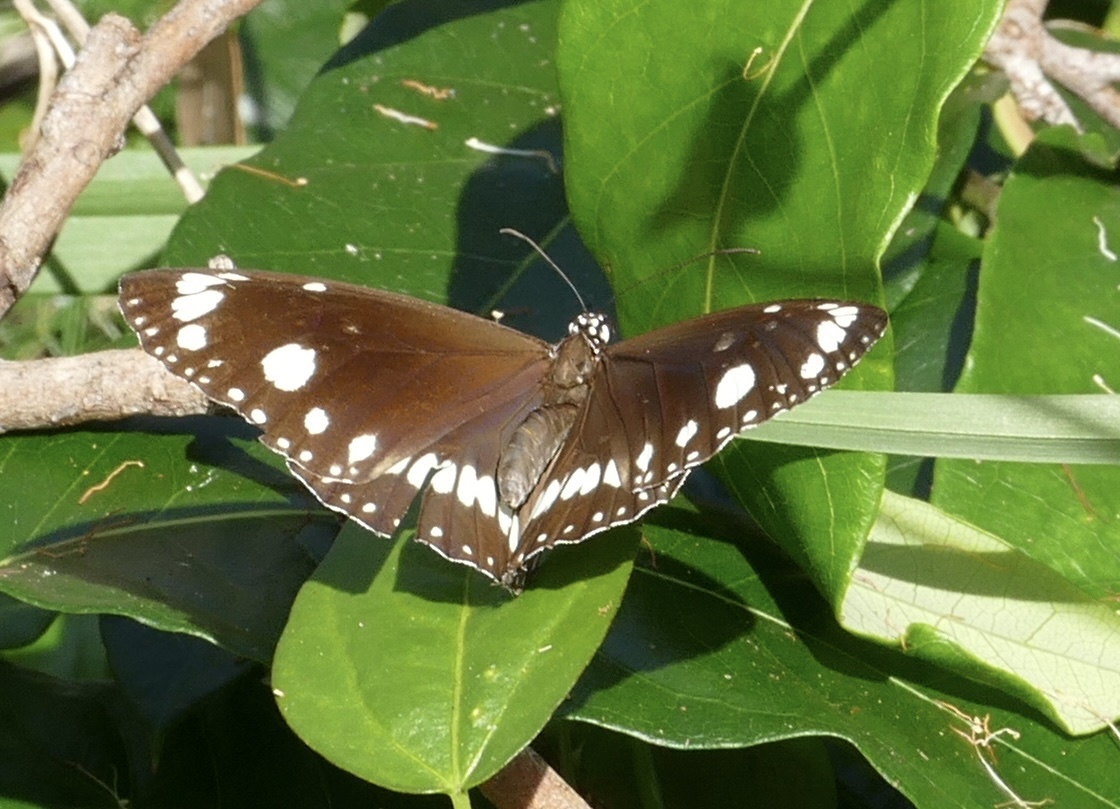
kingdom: Animalia
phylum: Arthropoda
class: Insecta
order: Lepidoptera
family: Nymphalidae
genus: Euploea
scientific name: Euploea core
